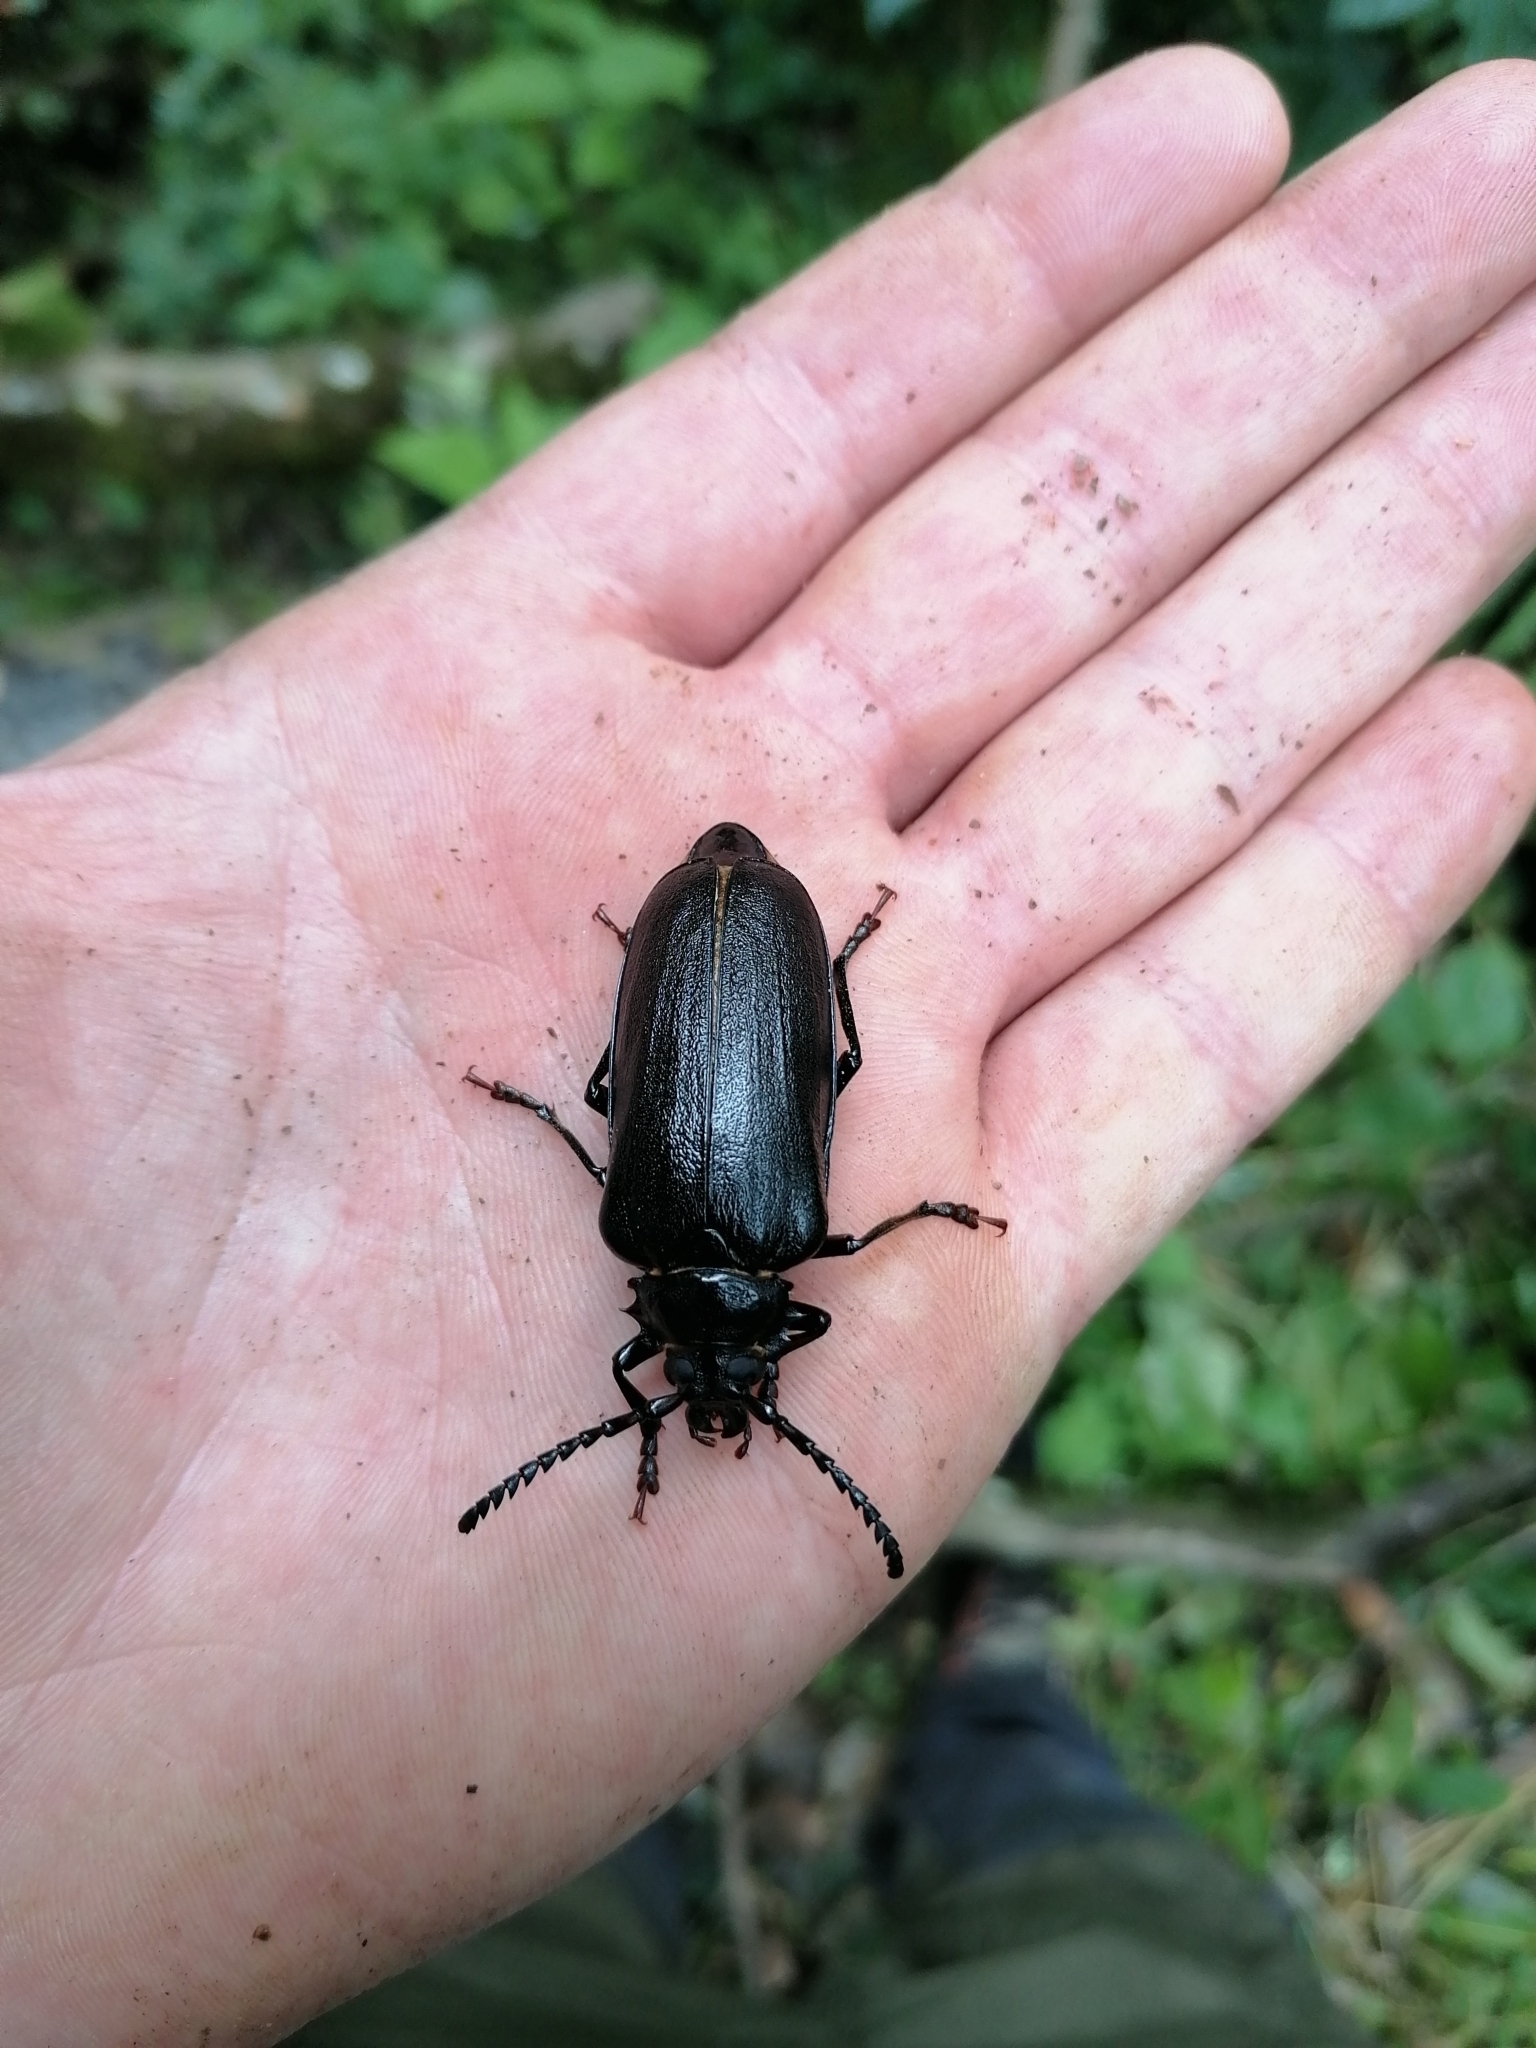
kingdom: Animalia
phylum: Arthropoda
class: Insecta
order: Coleoptera
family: Cerambycidae
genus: Prionus
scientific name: Prionus coriarius
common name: Tanner beetle
